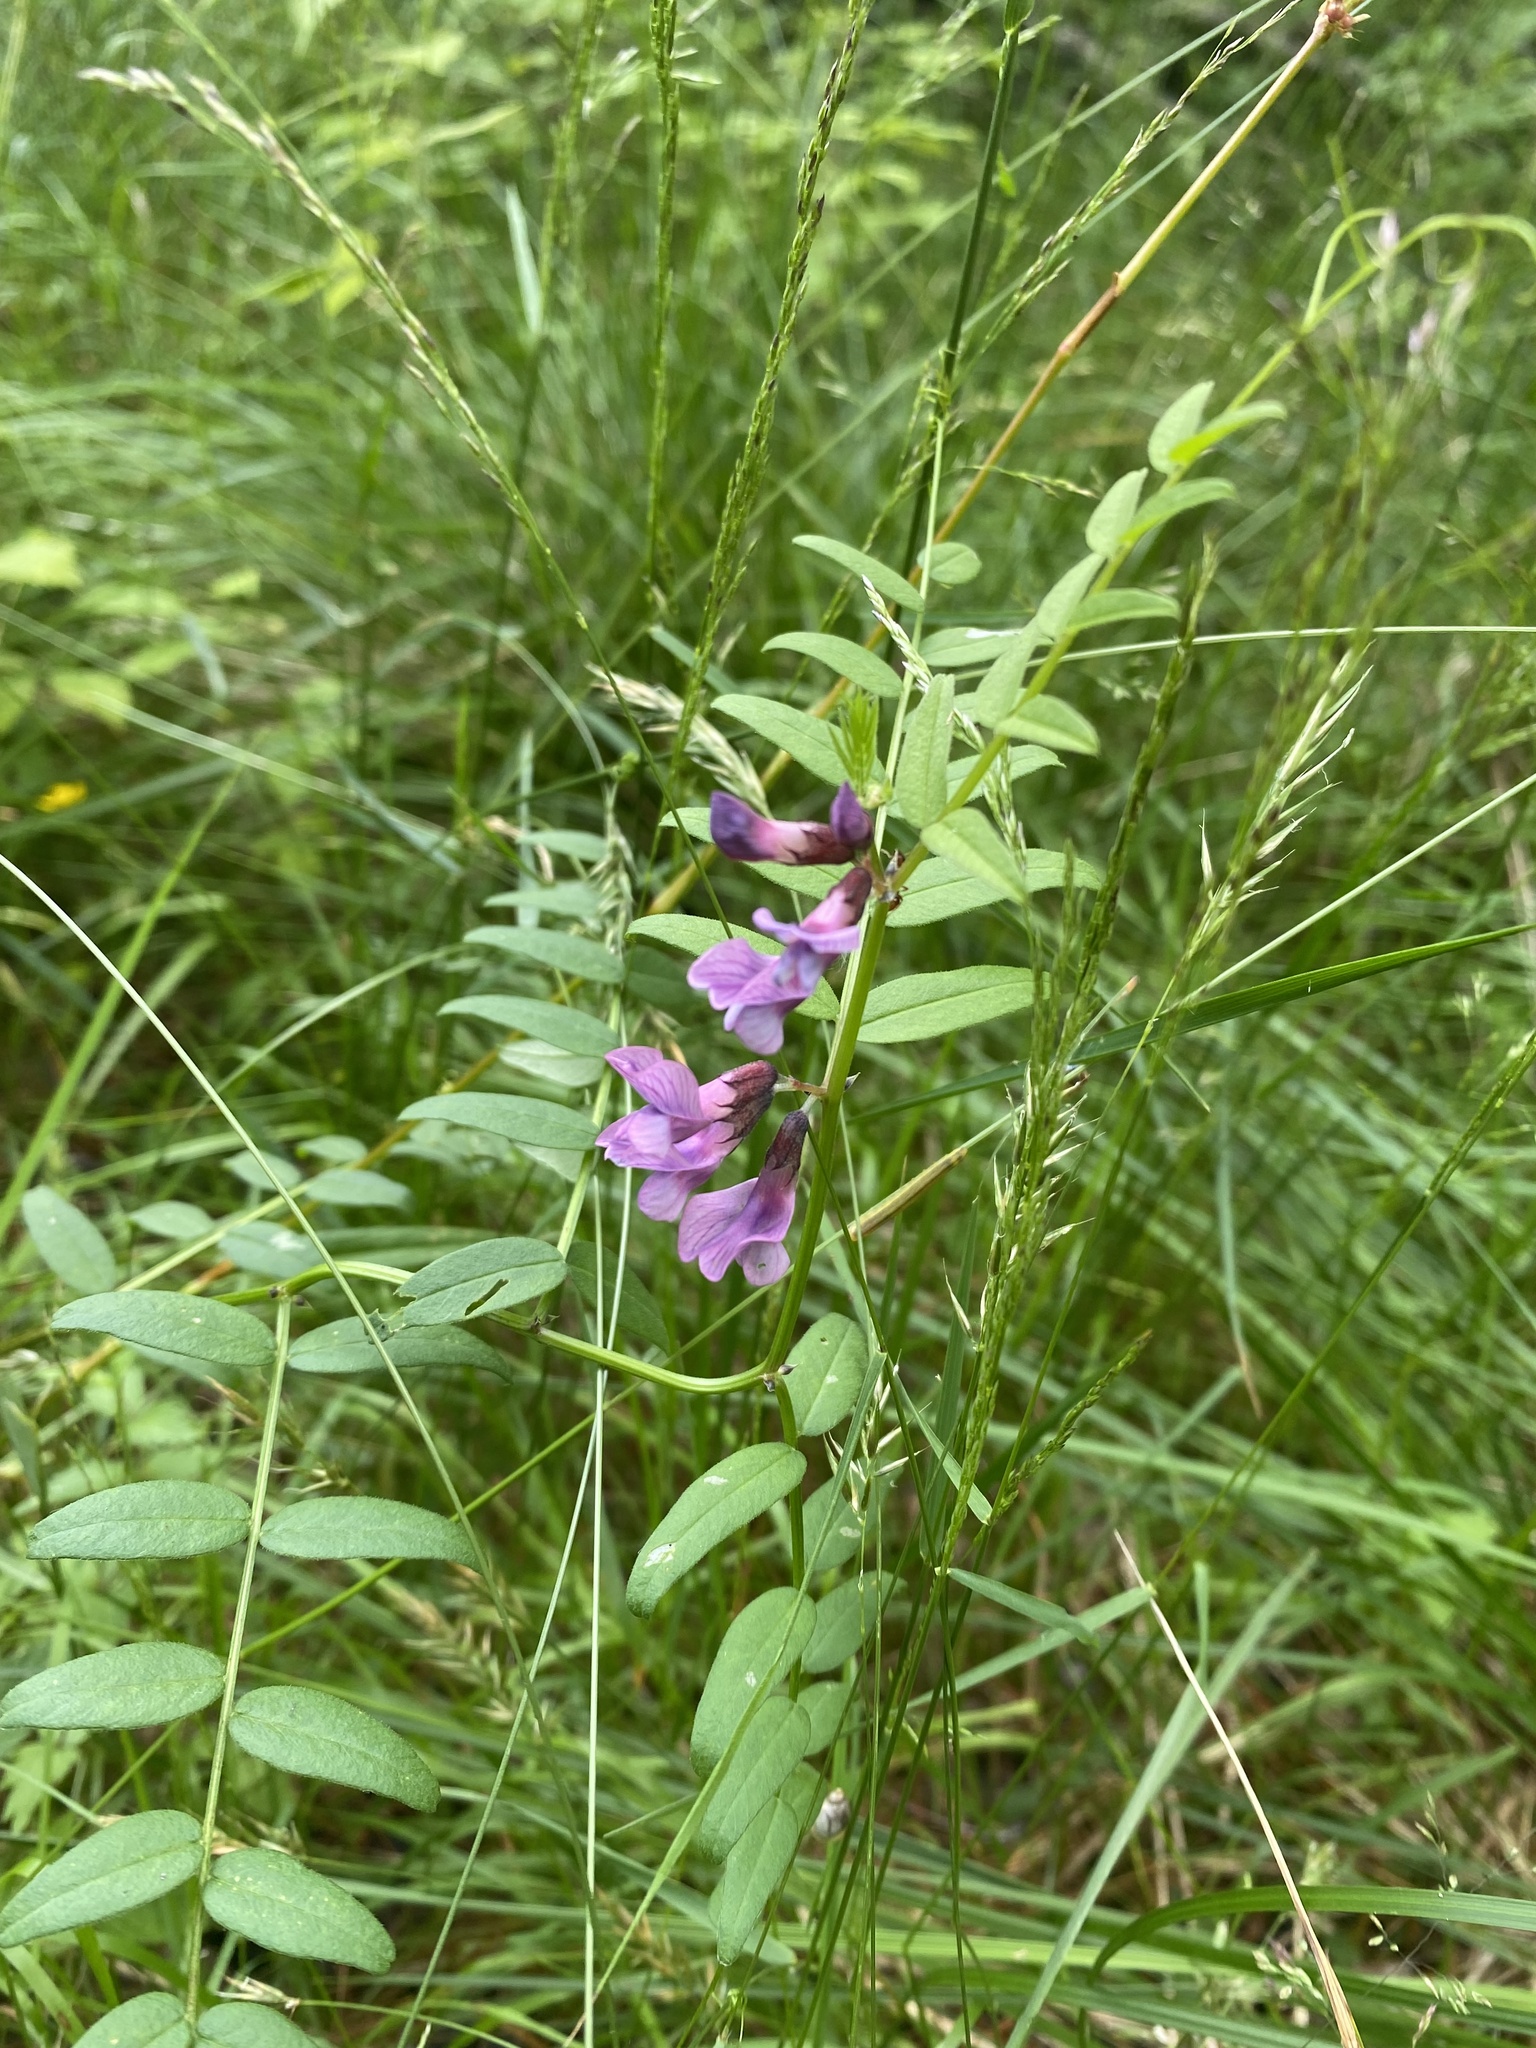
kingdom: Plantae
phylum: Tracheophyta
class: Magnoliopsida
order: Fabales
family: Fabaceae
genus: Vicia
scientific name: Vicia sepium
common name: Bush vetch
